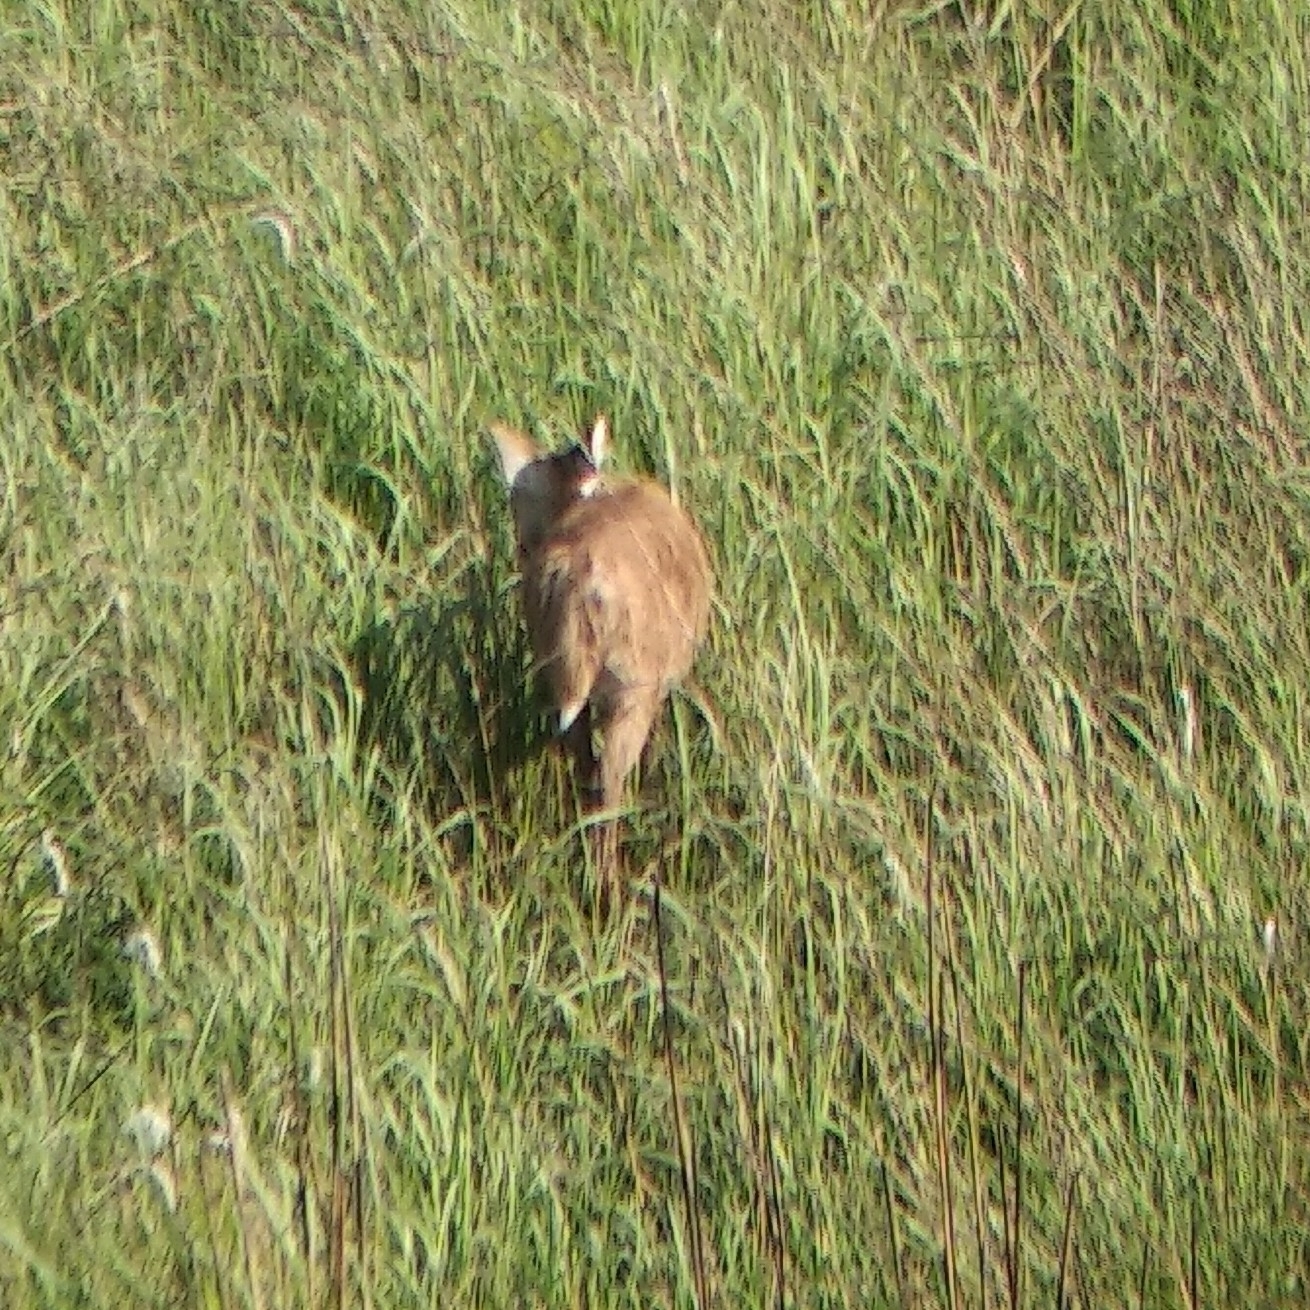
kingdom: Animalia
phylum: Chordata
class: Mammalia
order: Artiodactyla
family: Cervidae
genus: Rucervus
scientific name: Rucervus duvaucelii
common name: Barasingha
